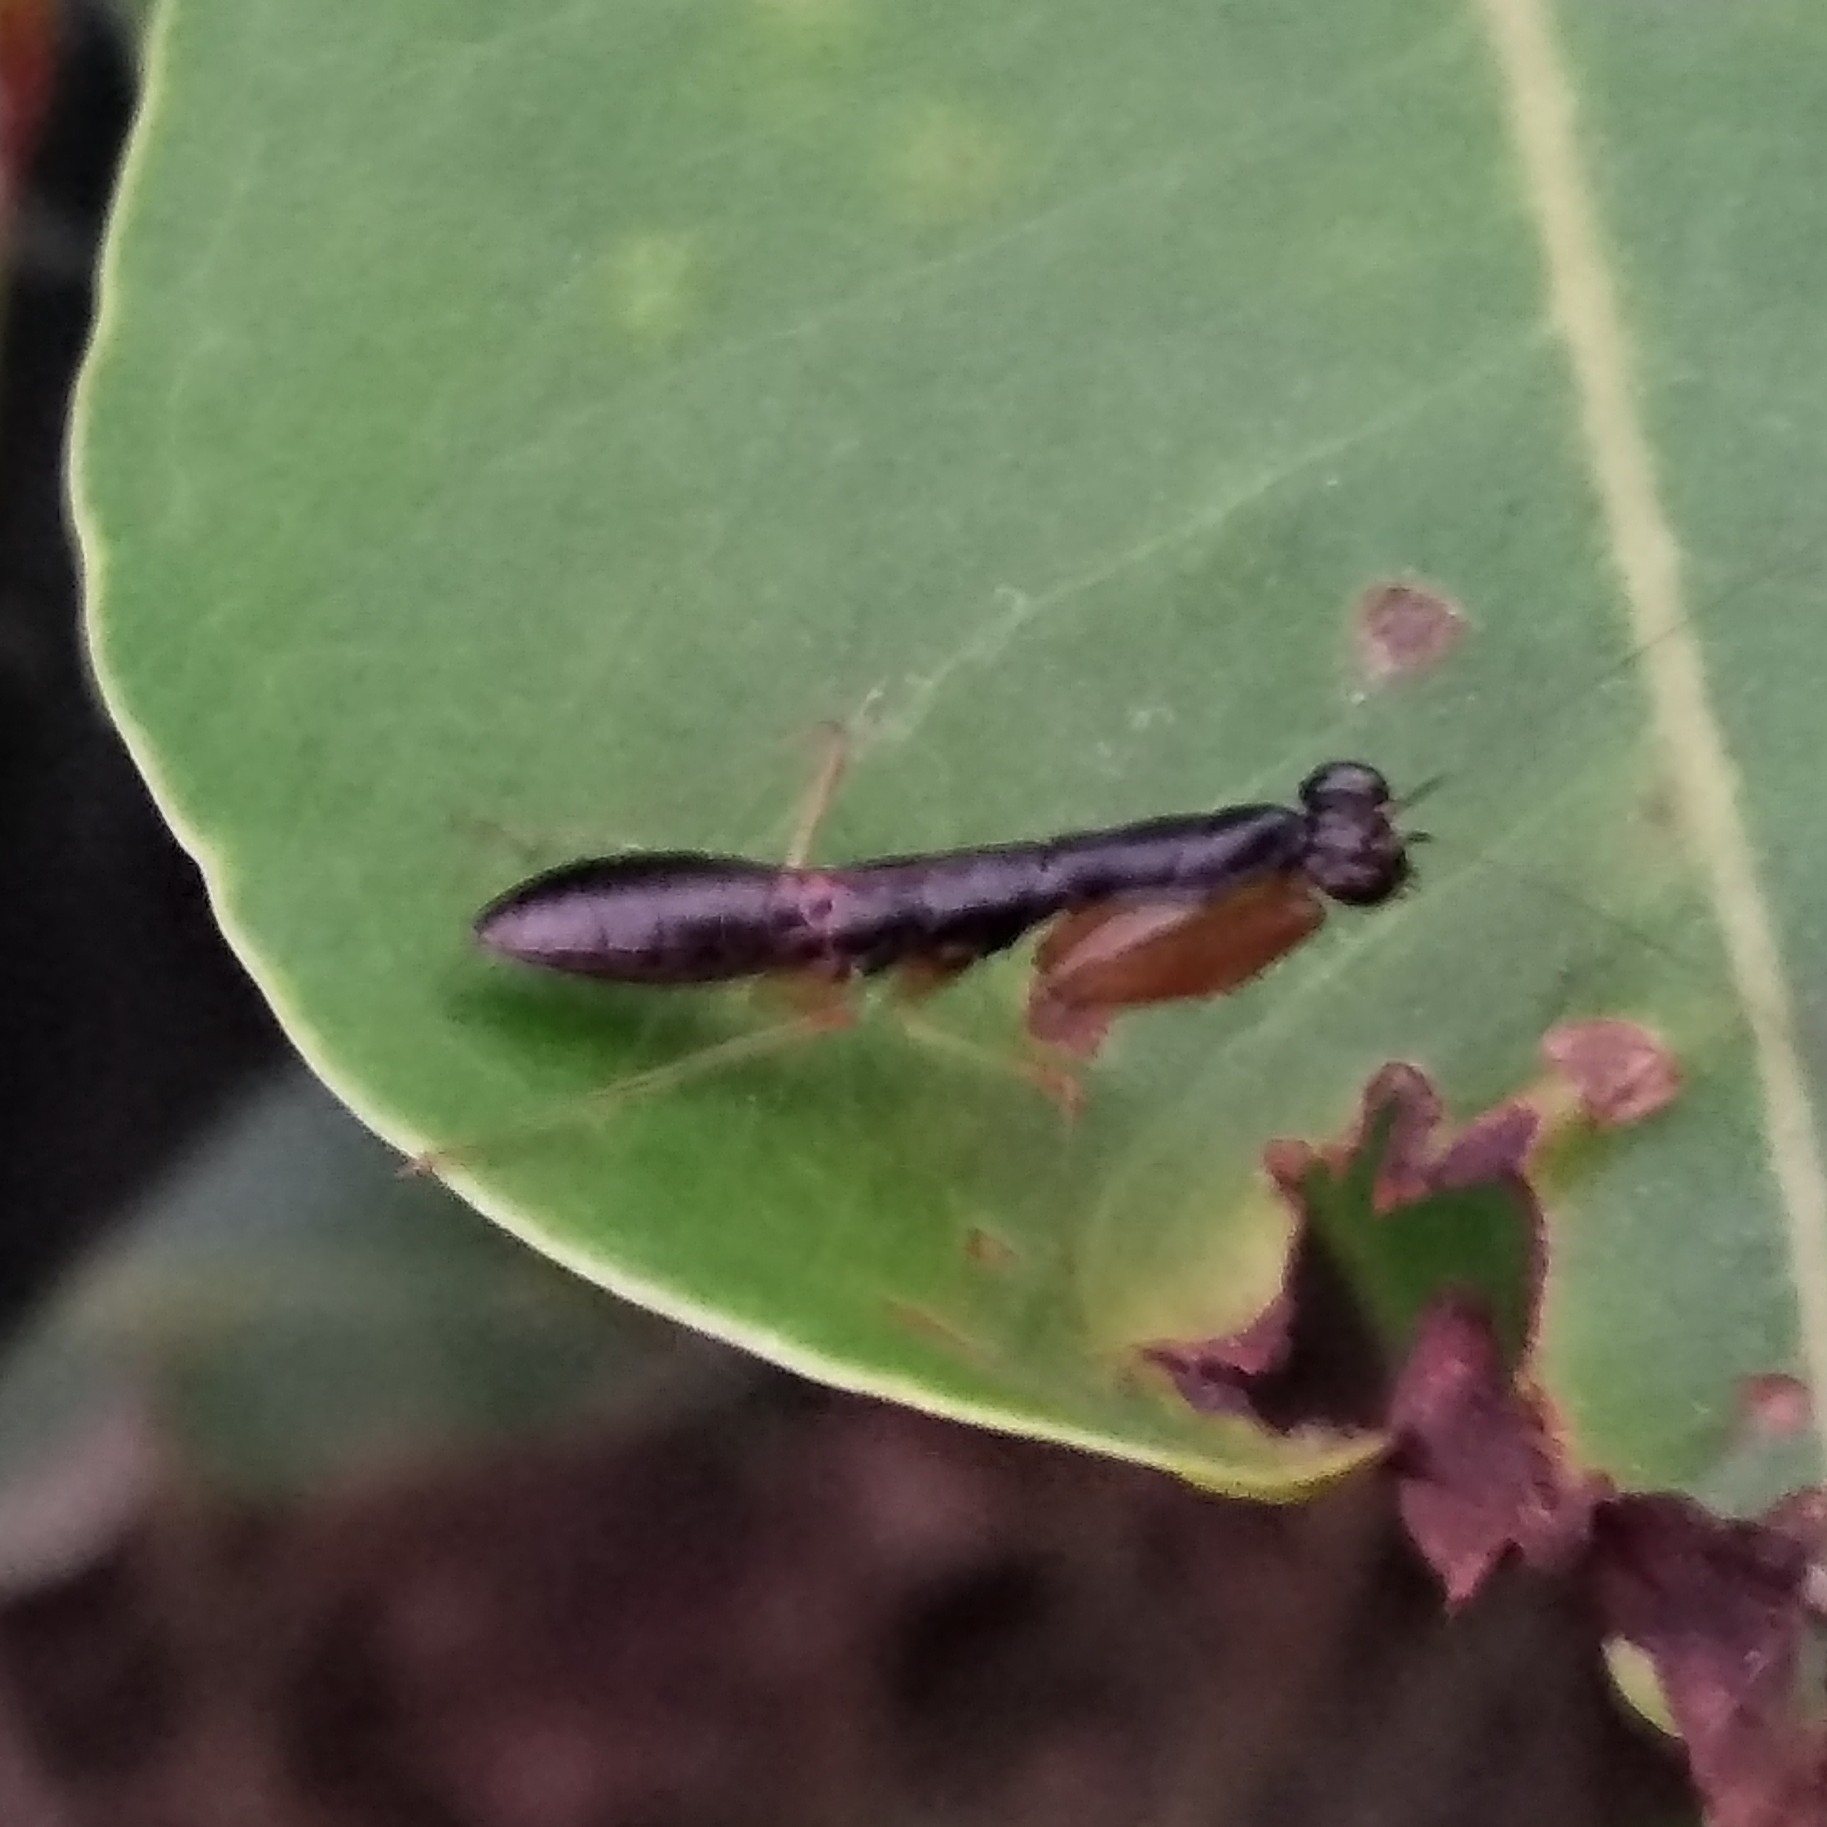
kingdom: Animalia
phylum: Arthropoda
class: Insecta
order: Mantodea
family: Hymenopodidae
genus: Odontomantis
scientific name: Odontomantis planiceps
